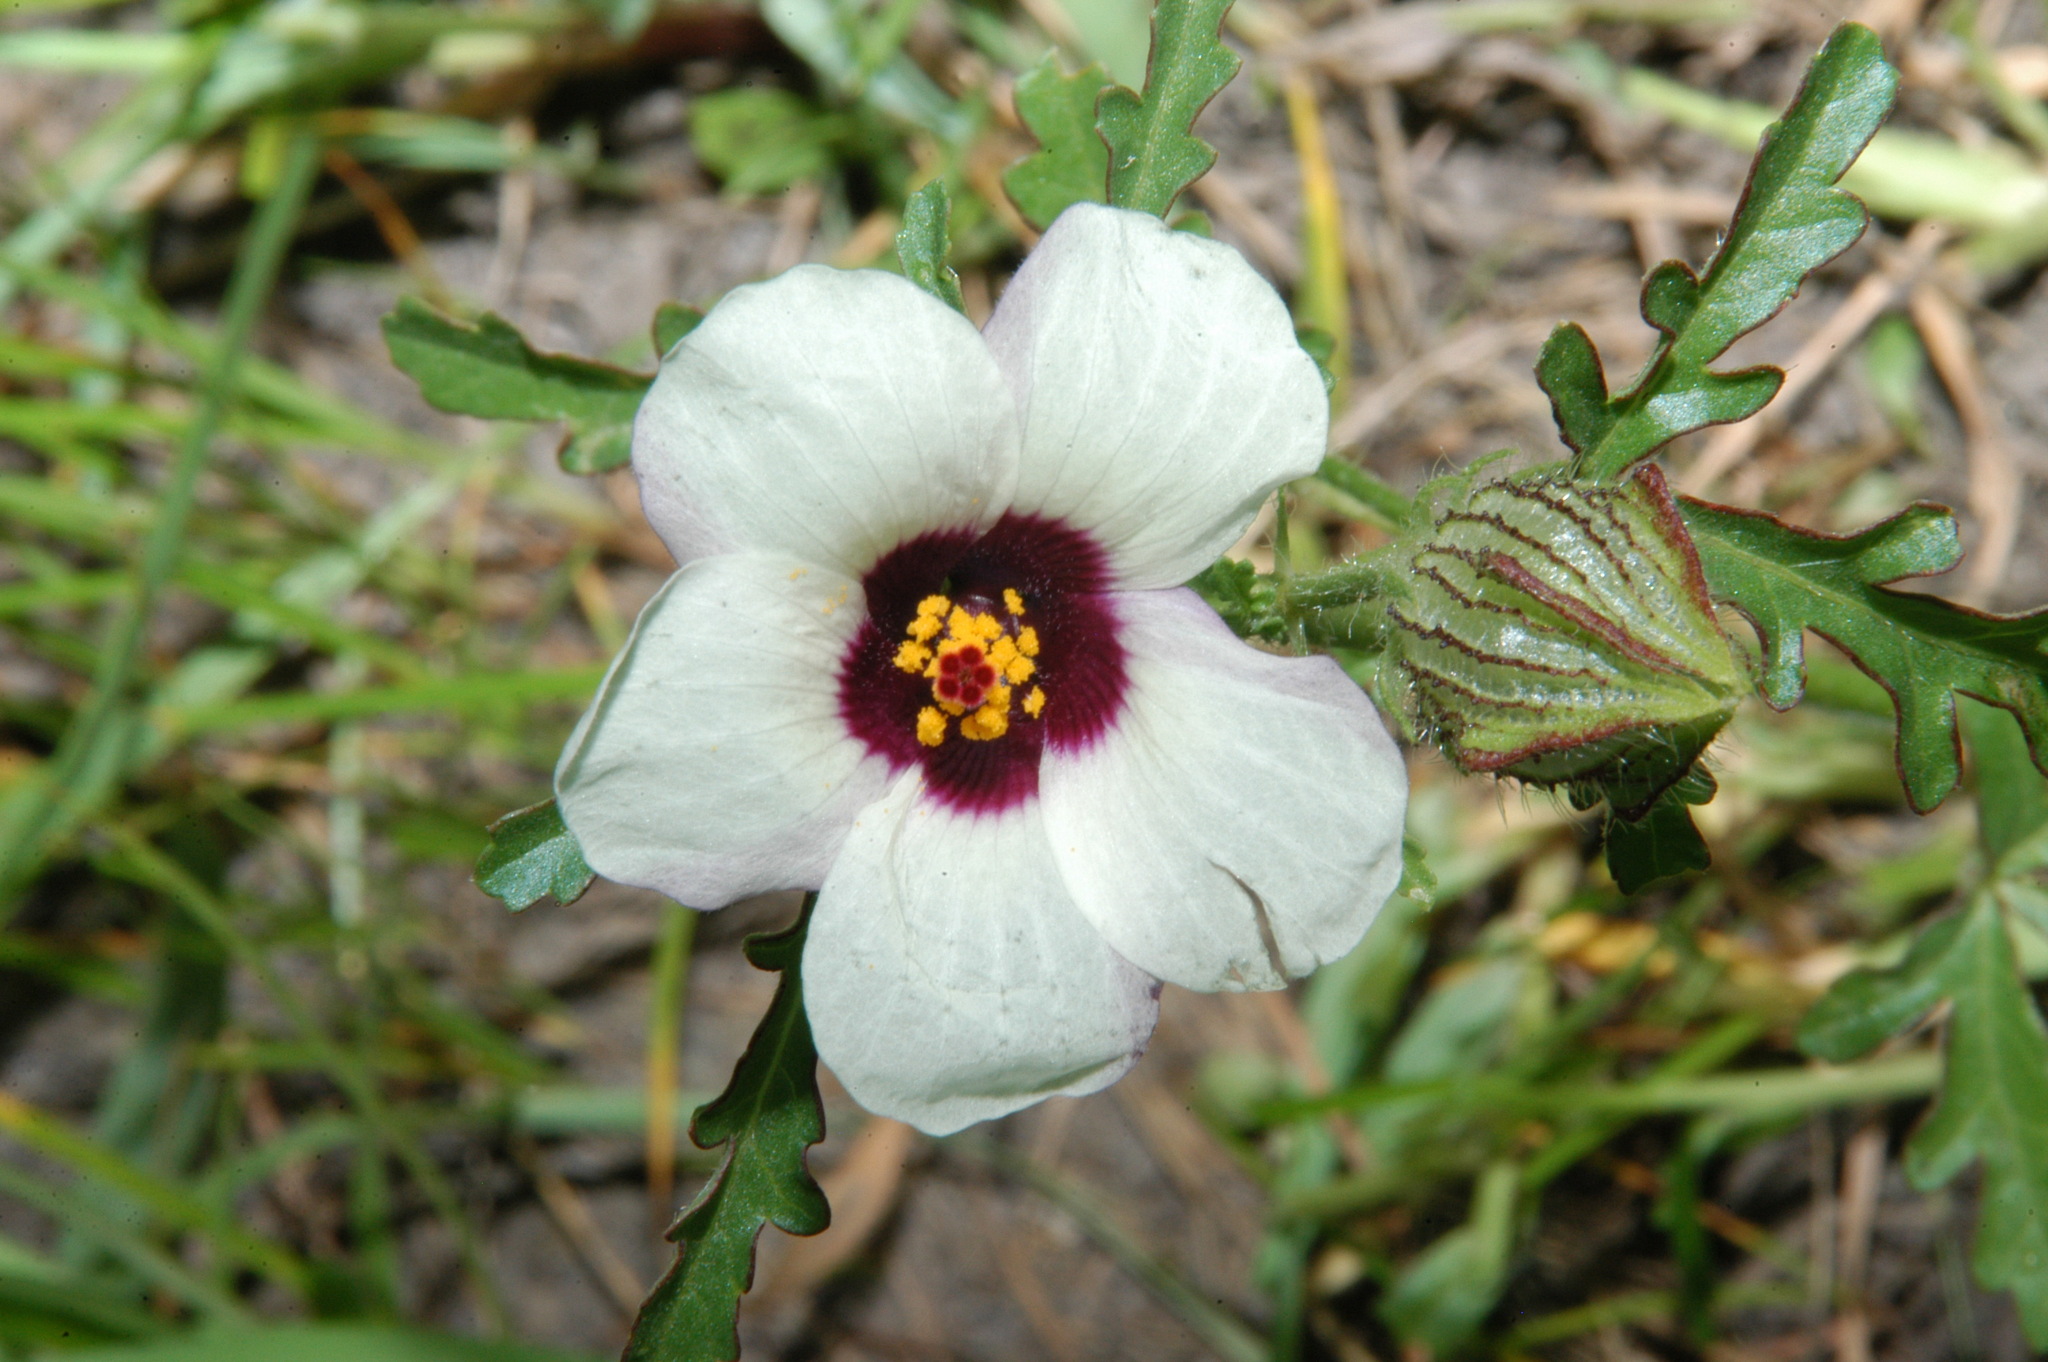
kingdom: Plantae
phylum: Tracheophyta
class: Magnoliopsida
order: Malvales
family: Malvaceae
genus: Hibiscus
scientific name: Hibiscus trionum
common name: Bladder ketmia
